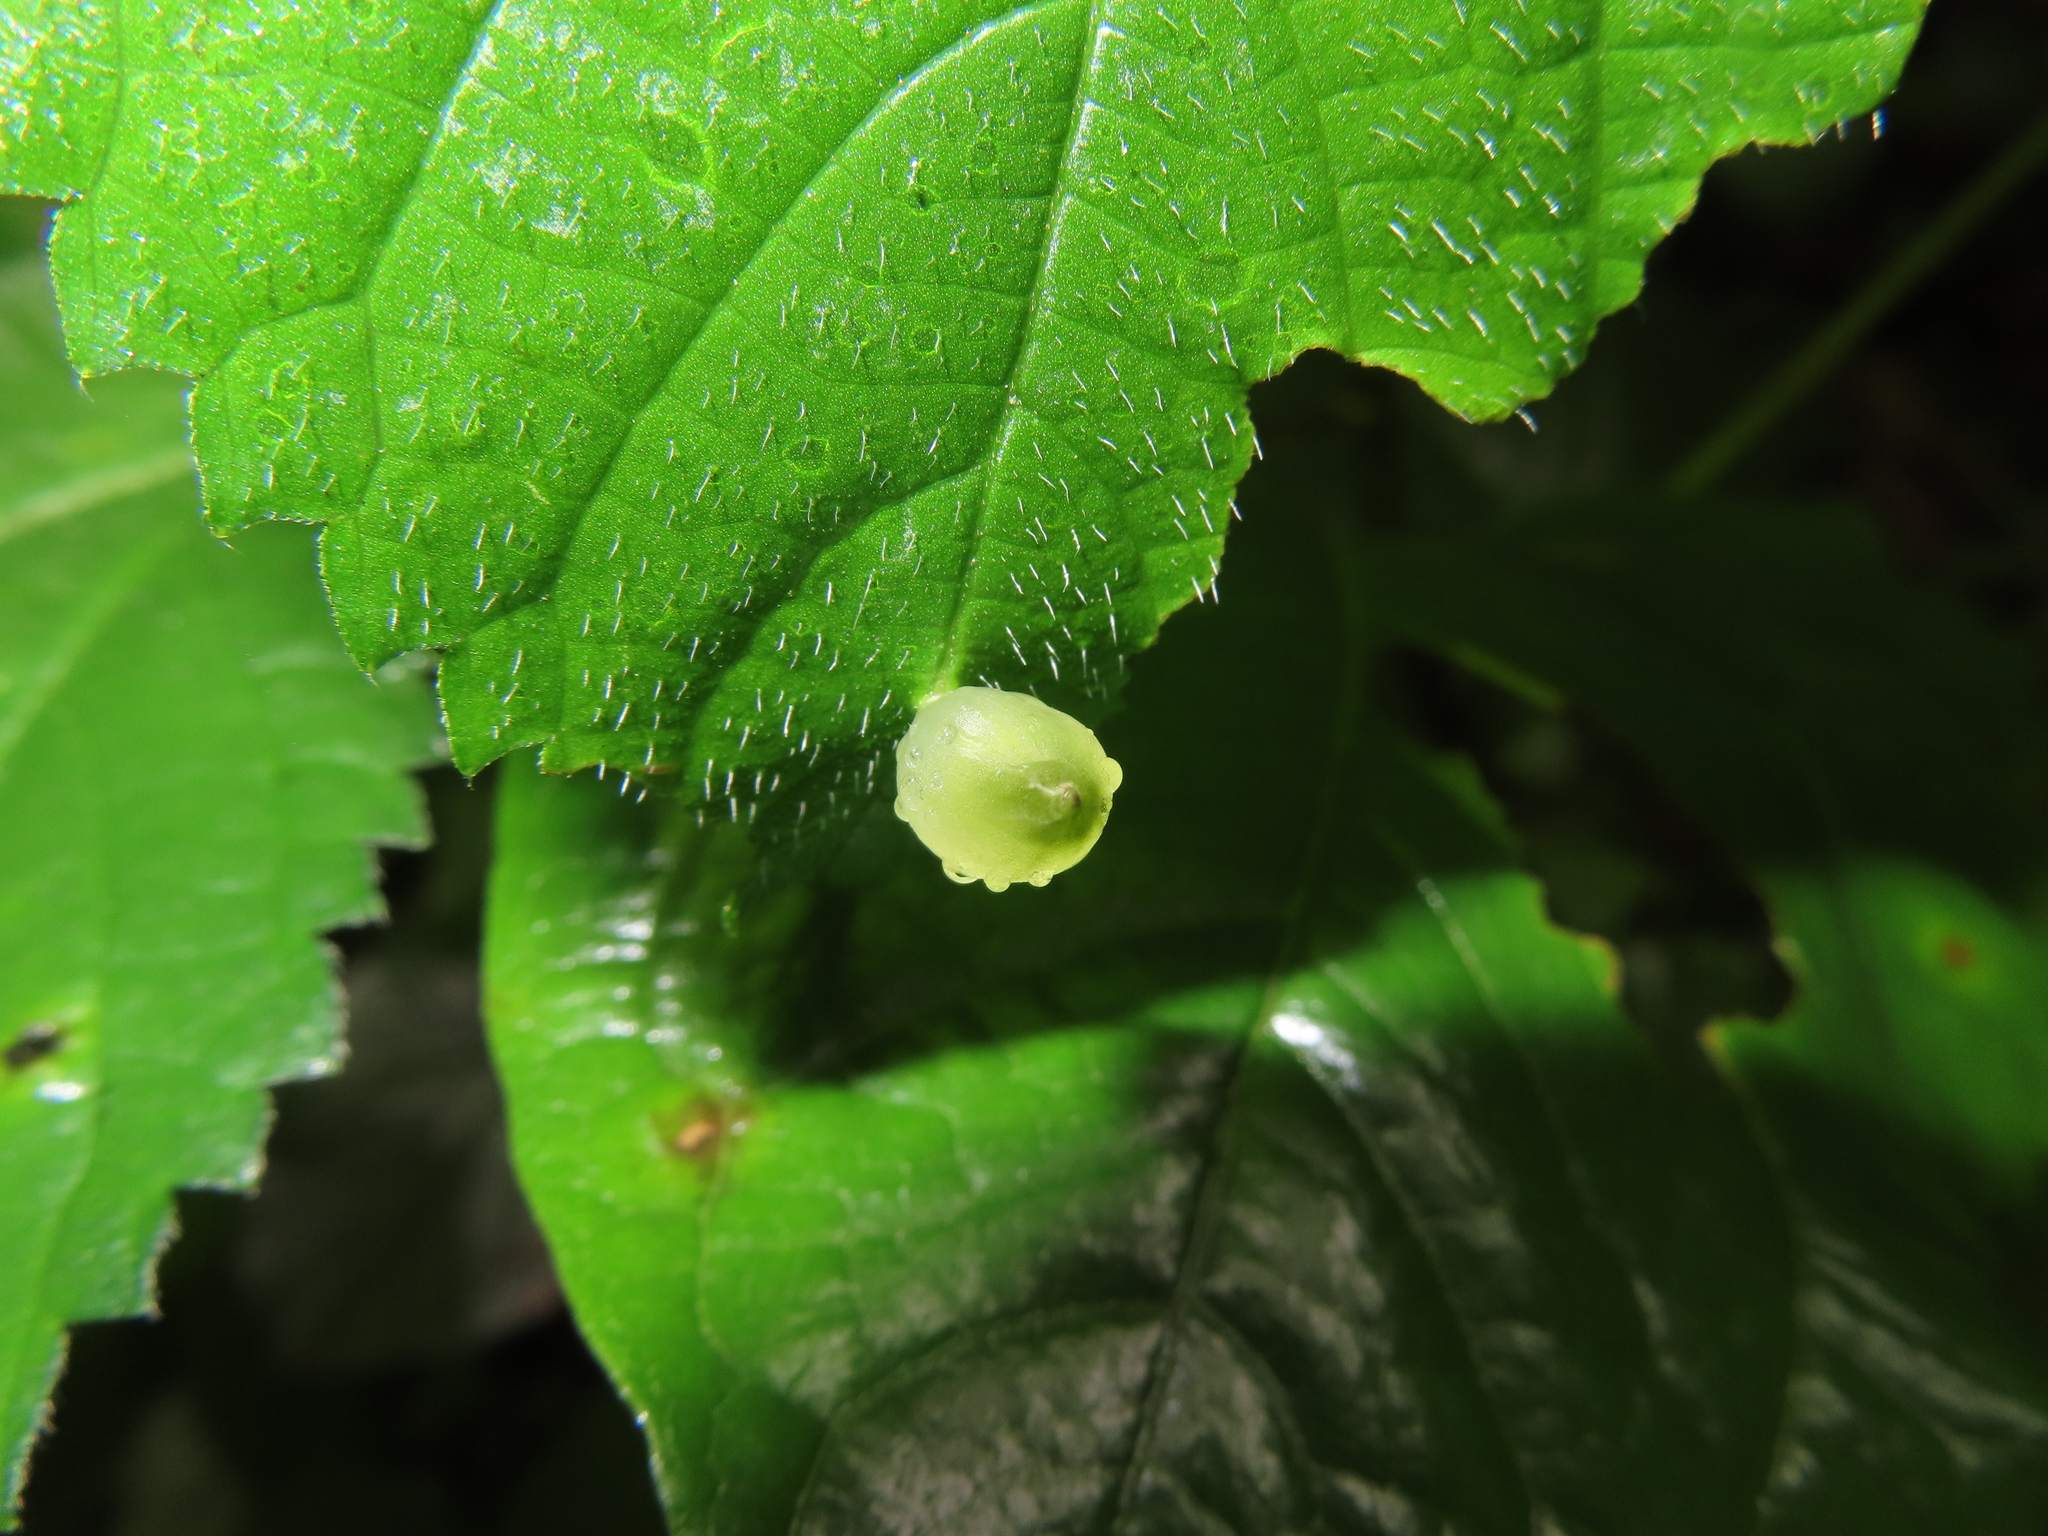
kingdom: Animalia
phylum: Arthropoda
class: Insecta
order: Diptera
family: Cecidomyiidae
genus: Dasineura
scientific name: Dasineura investita
